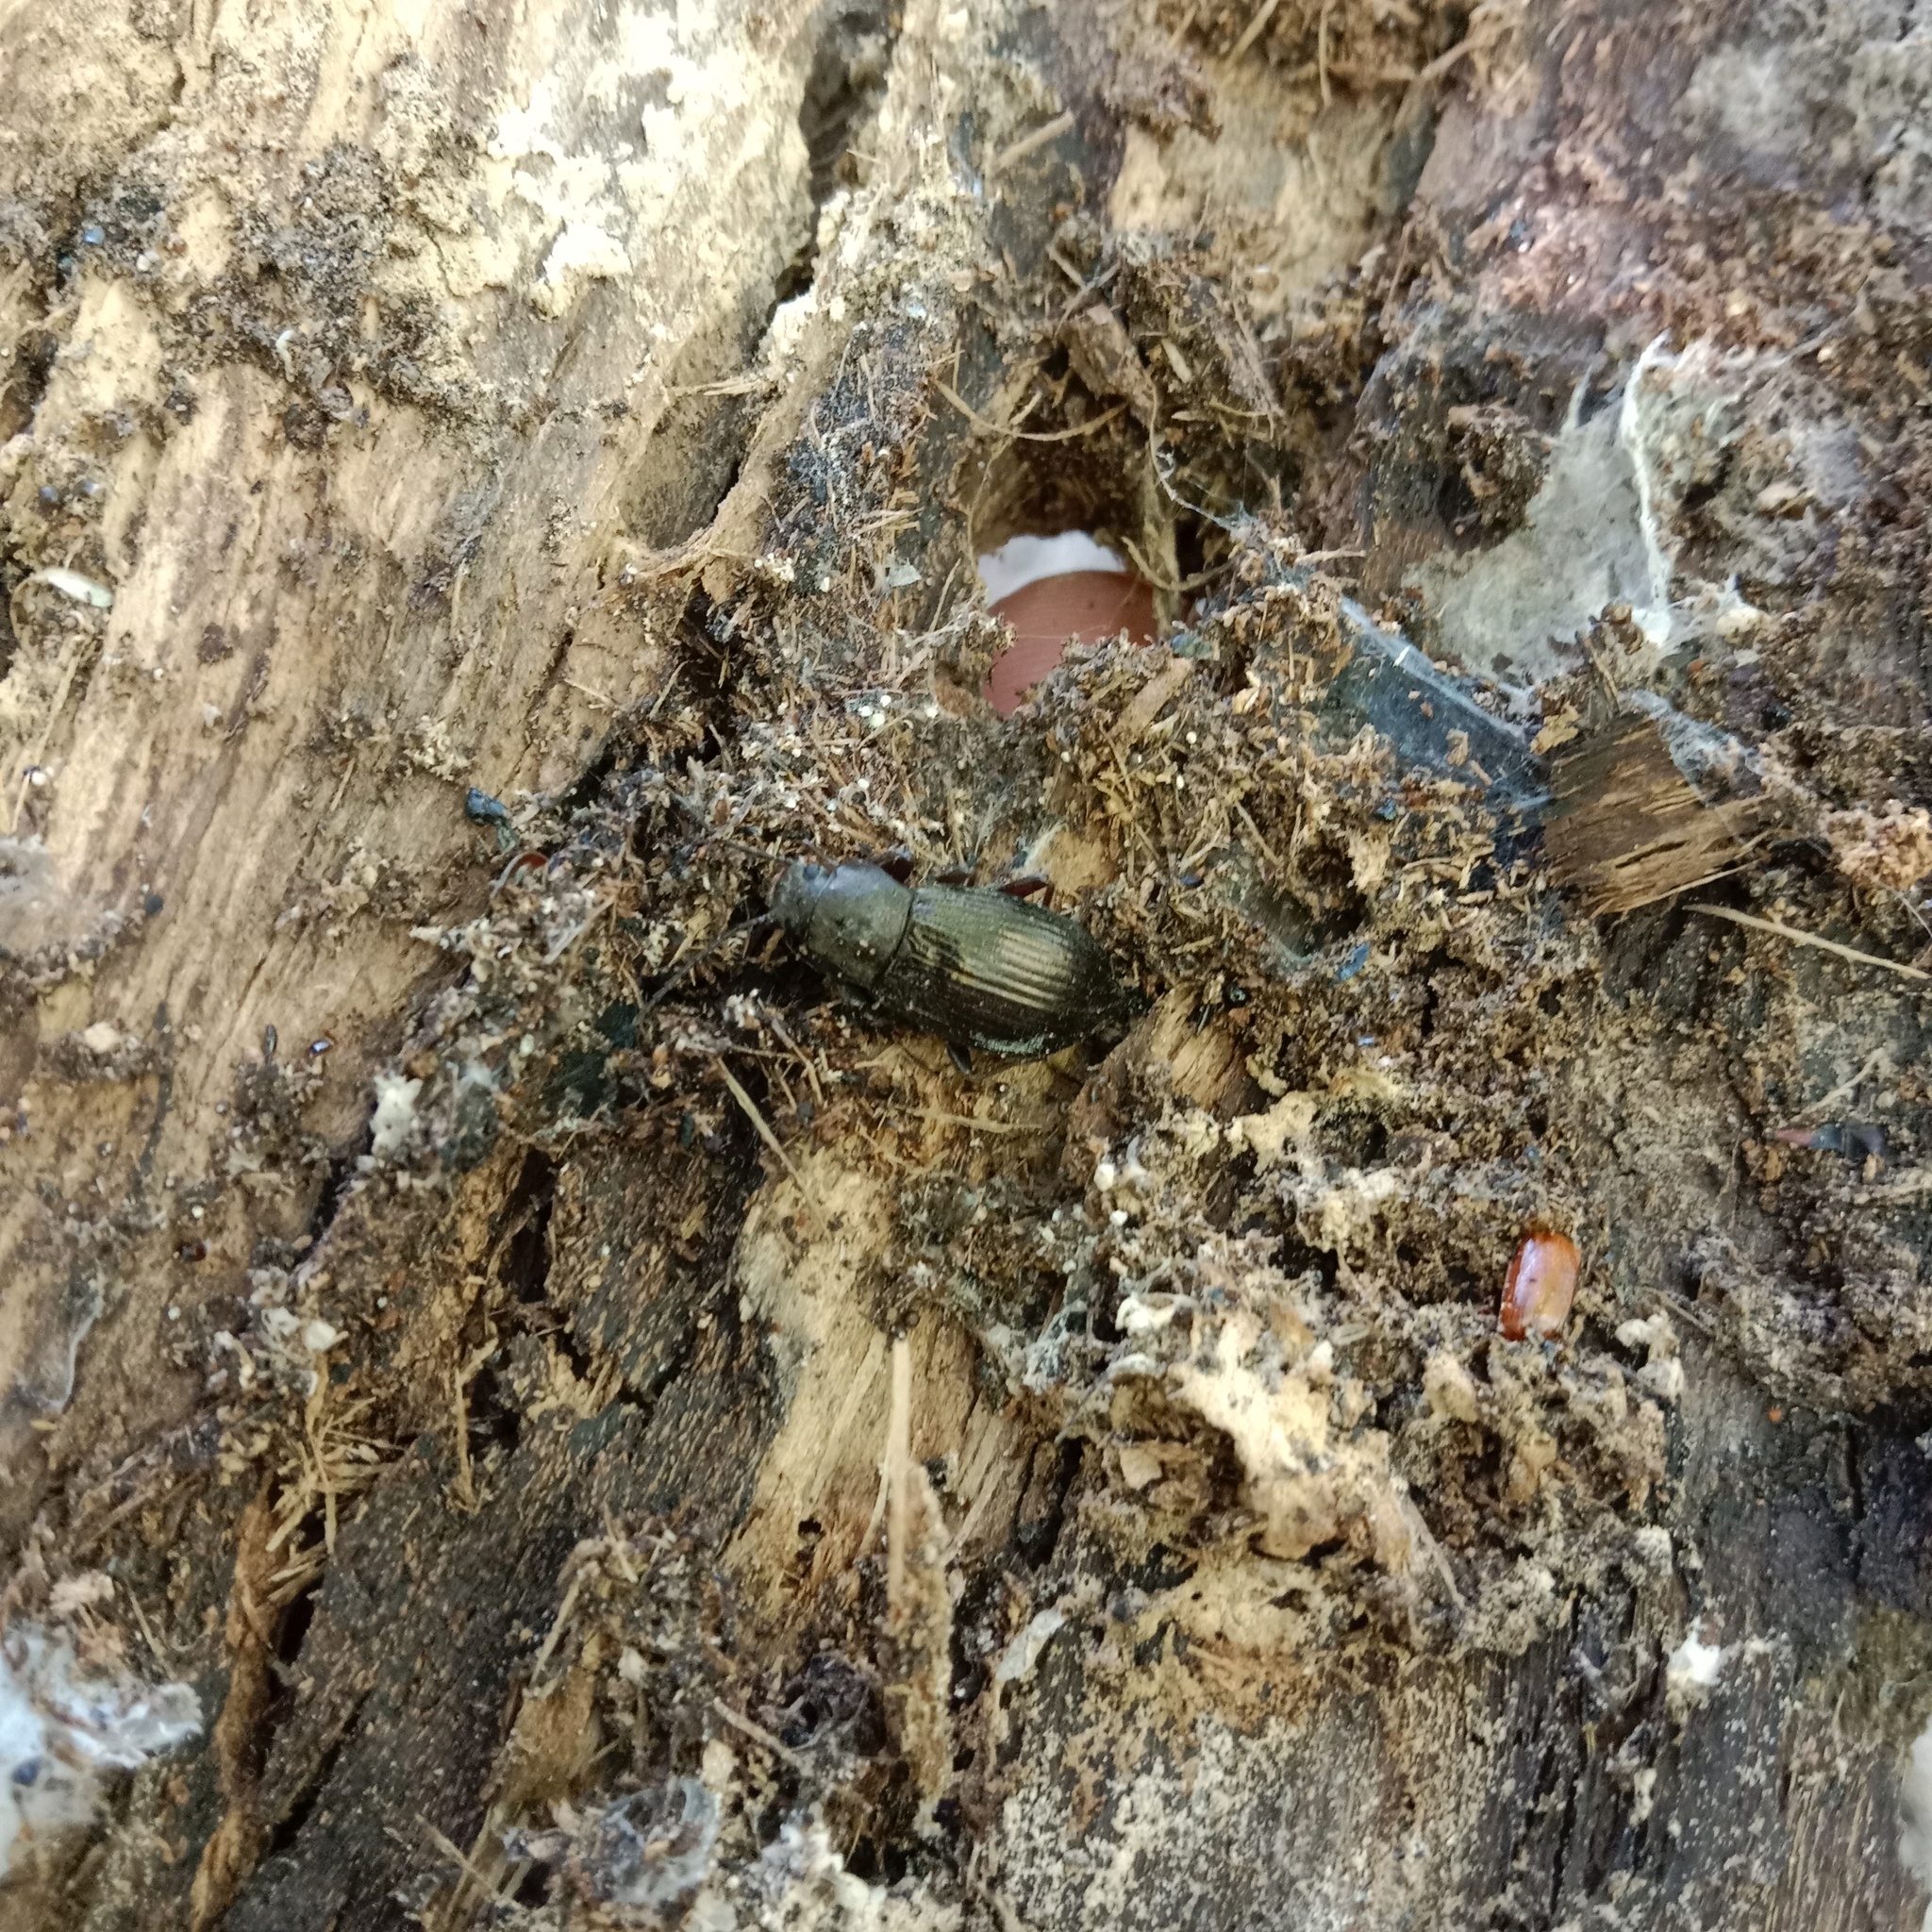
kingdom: Animalia
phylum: Arthropoda
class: Insecta
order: Coleoptera
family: Tenebrionidae
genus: Stenomax
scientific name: Stenomax aeneus
